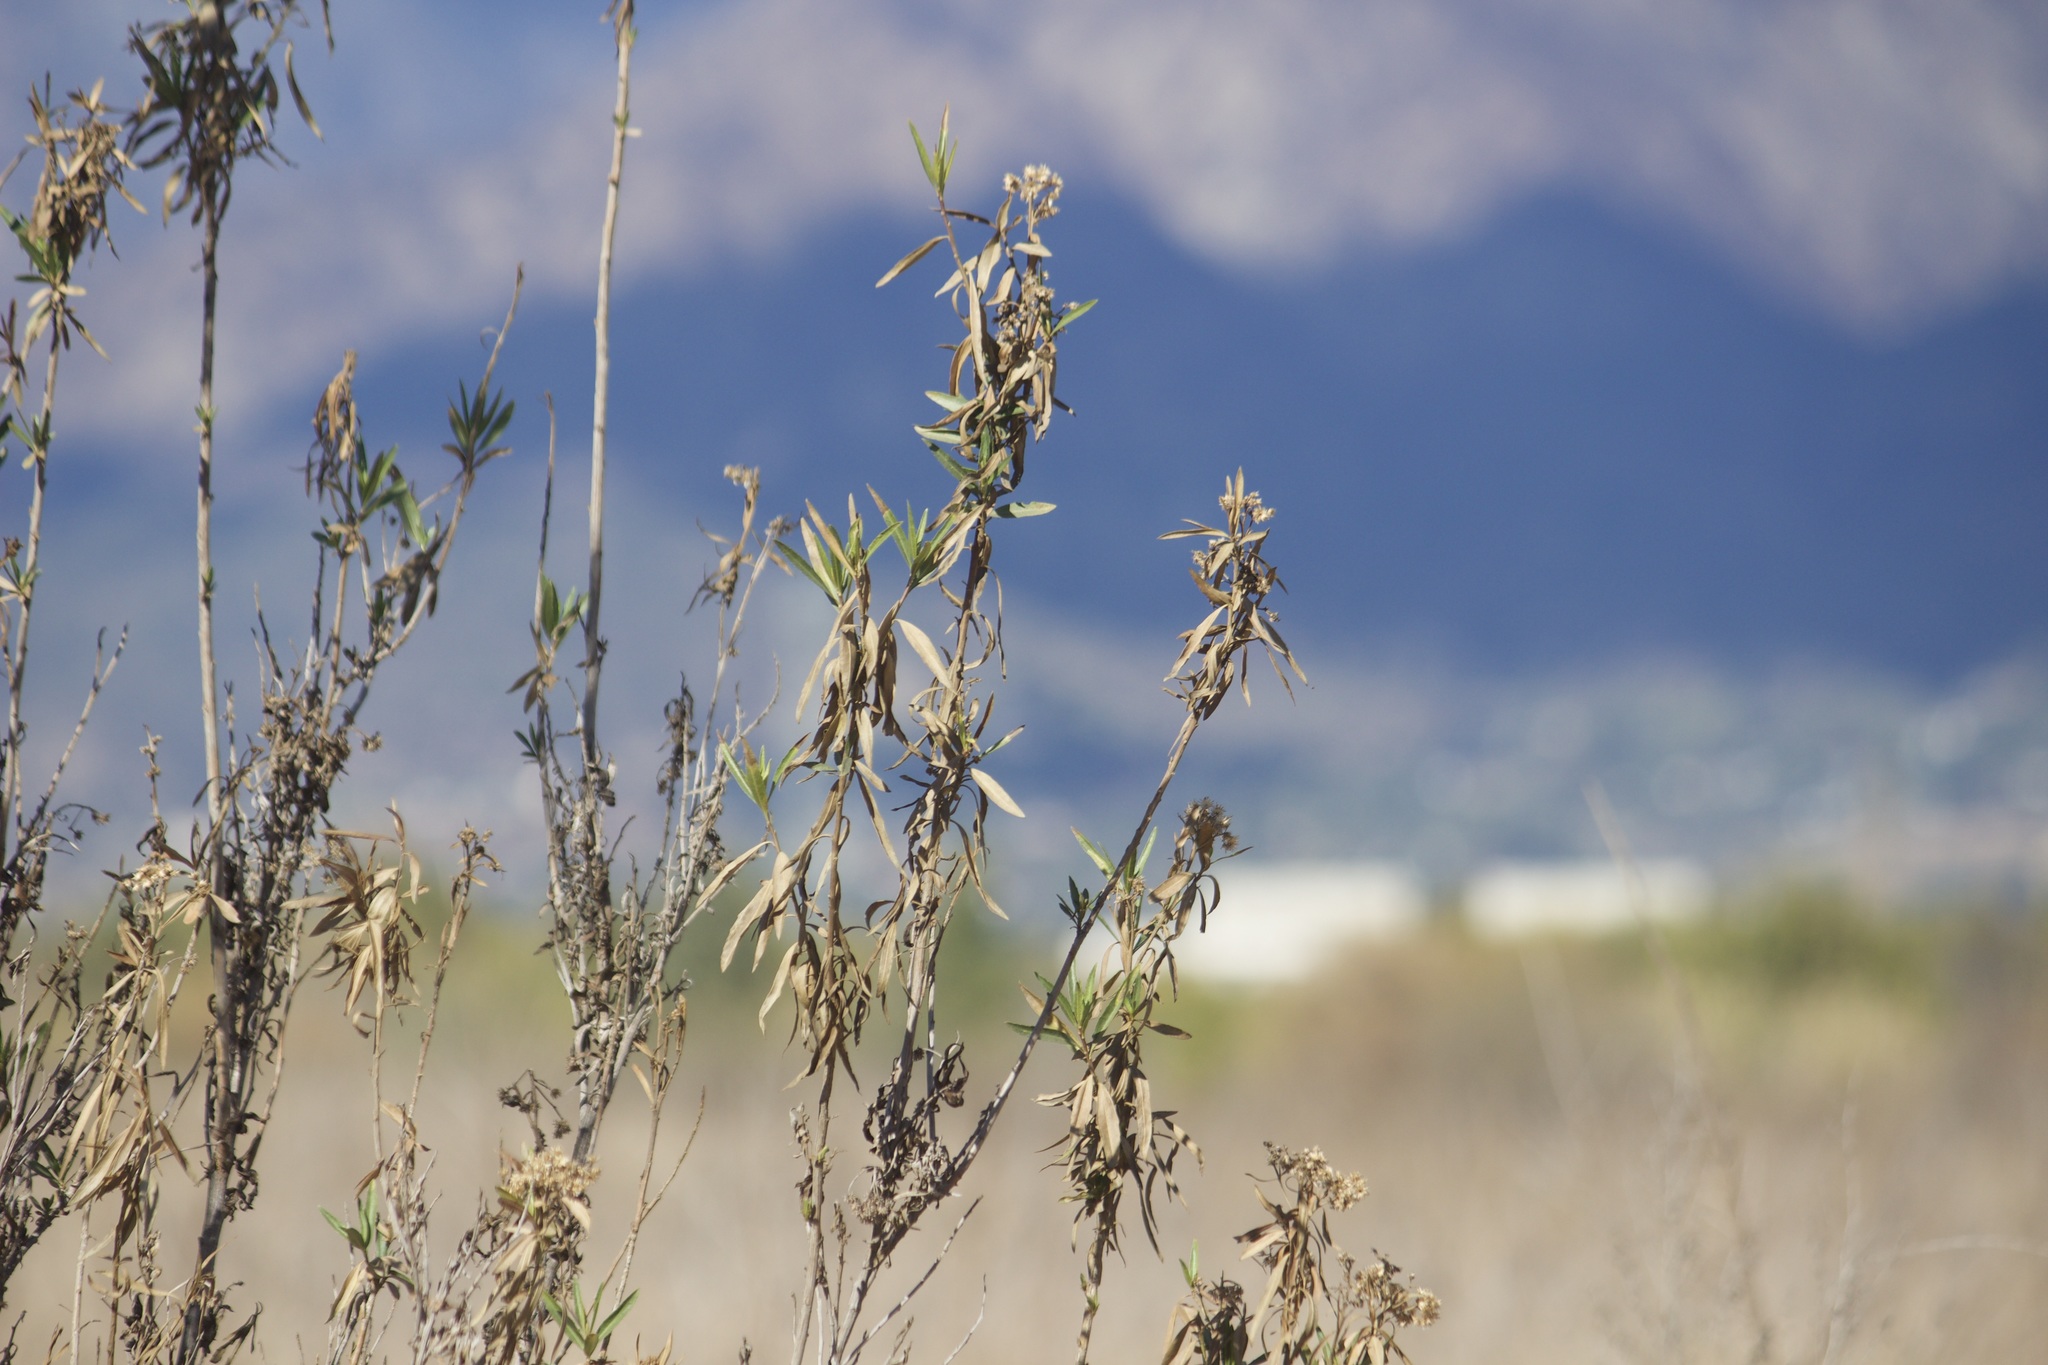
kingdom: Plantae
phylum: Tracheophyta
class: Magnoliopsida
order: Asterales
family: Asteraceae
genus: Baccharis
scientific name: Baccharis salicifolia
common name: Sticky baccharis
